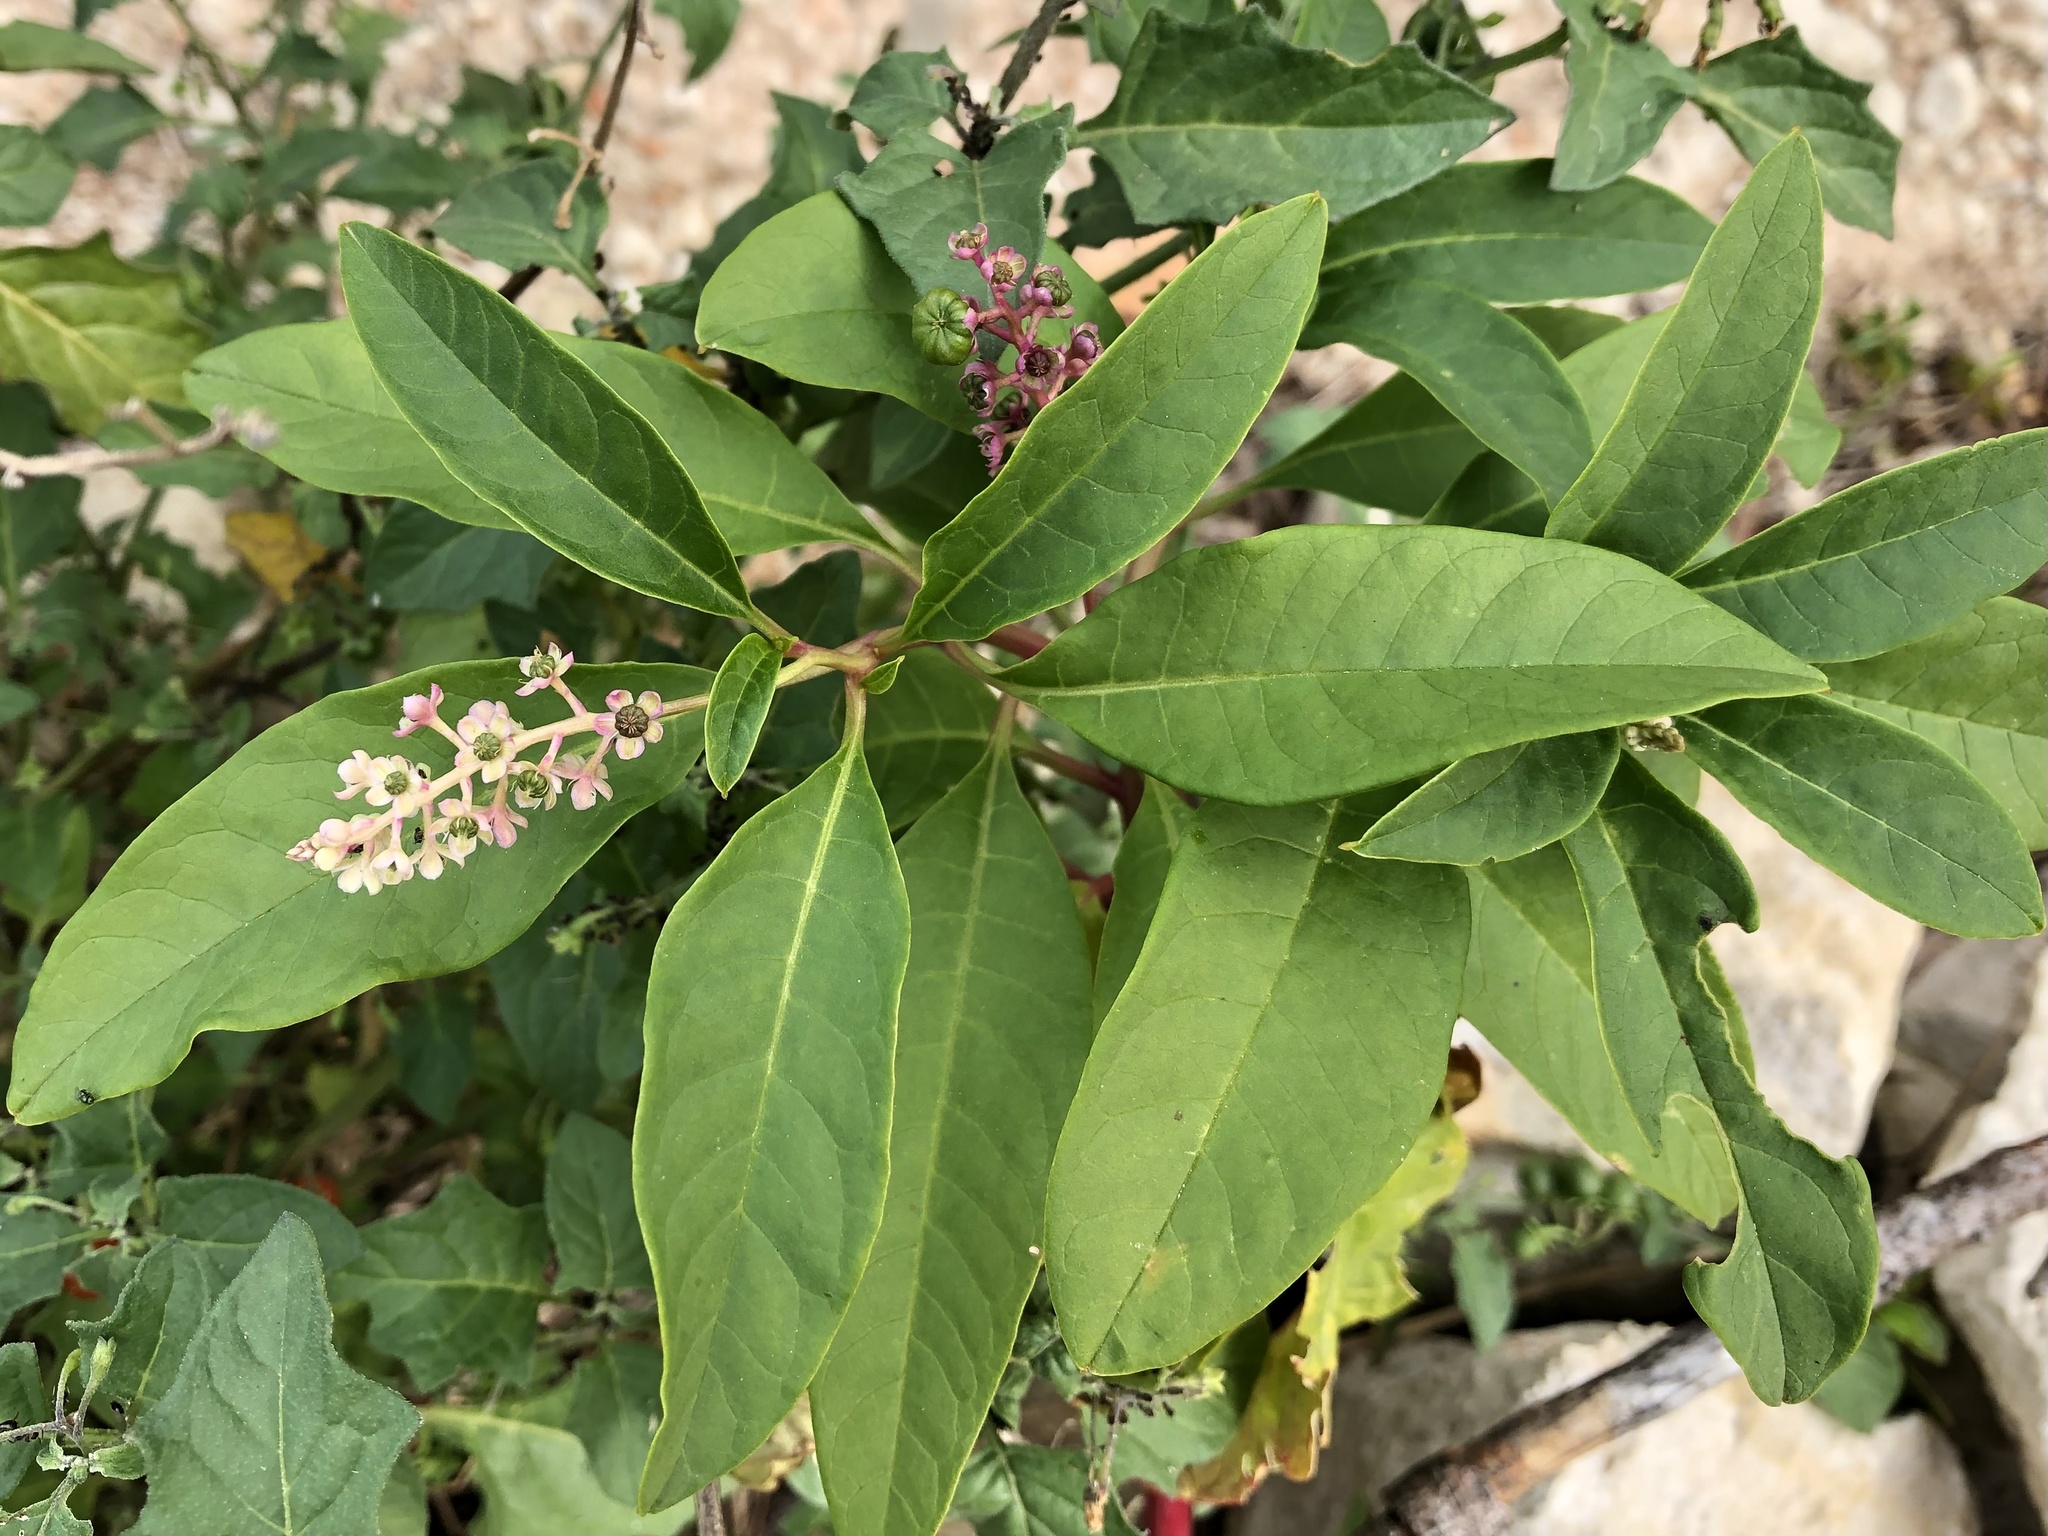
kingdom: Plantae
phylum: Tracheophyta
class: Magnoliopsida
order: Caryophyllales
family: Phytolaccaceae
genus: Phytolacca
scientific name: Phytolacca americana
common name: American pokeweed
